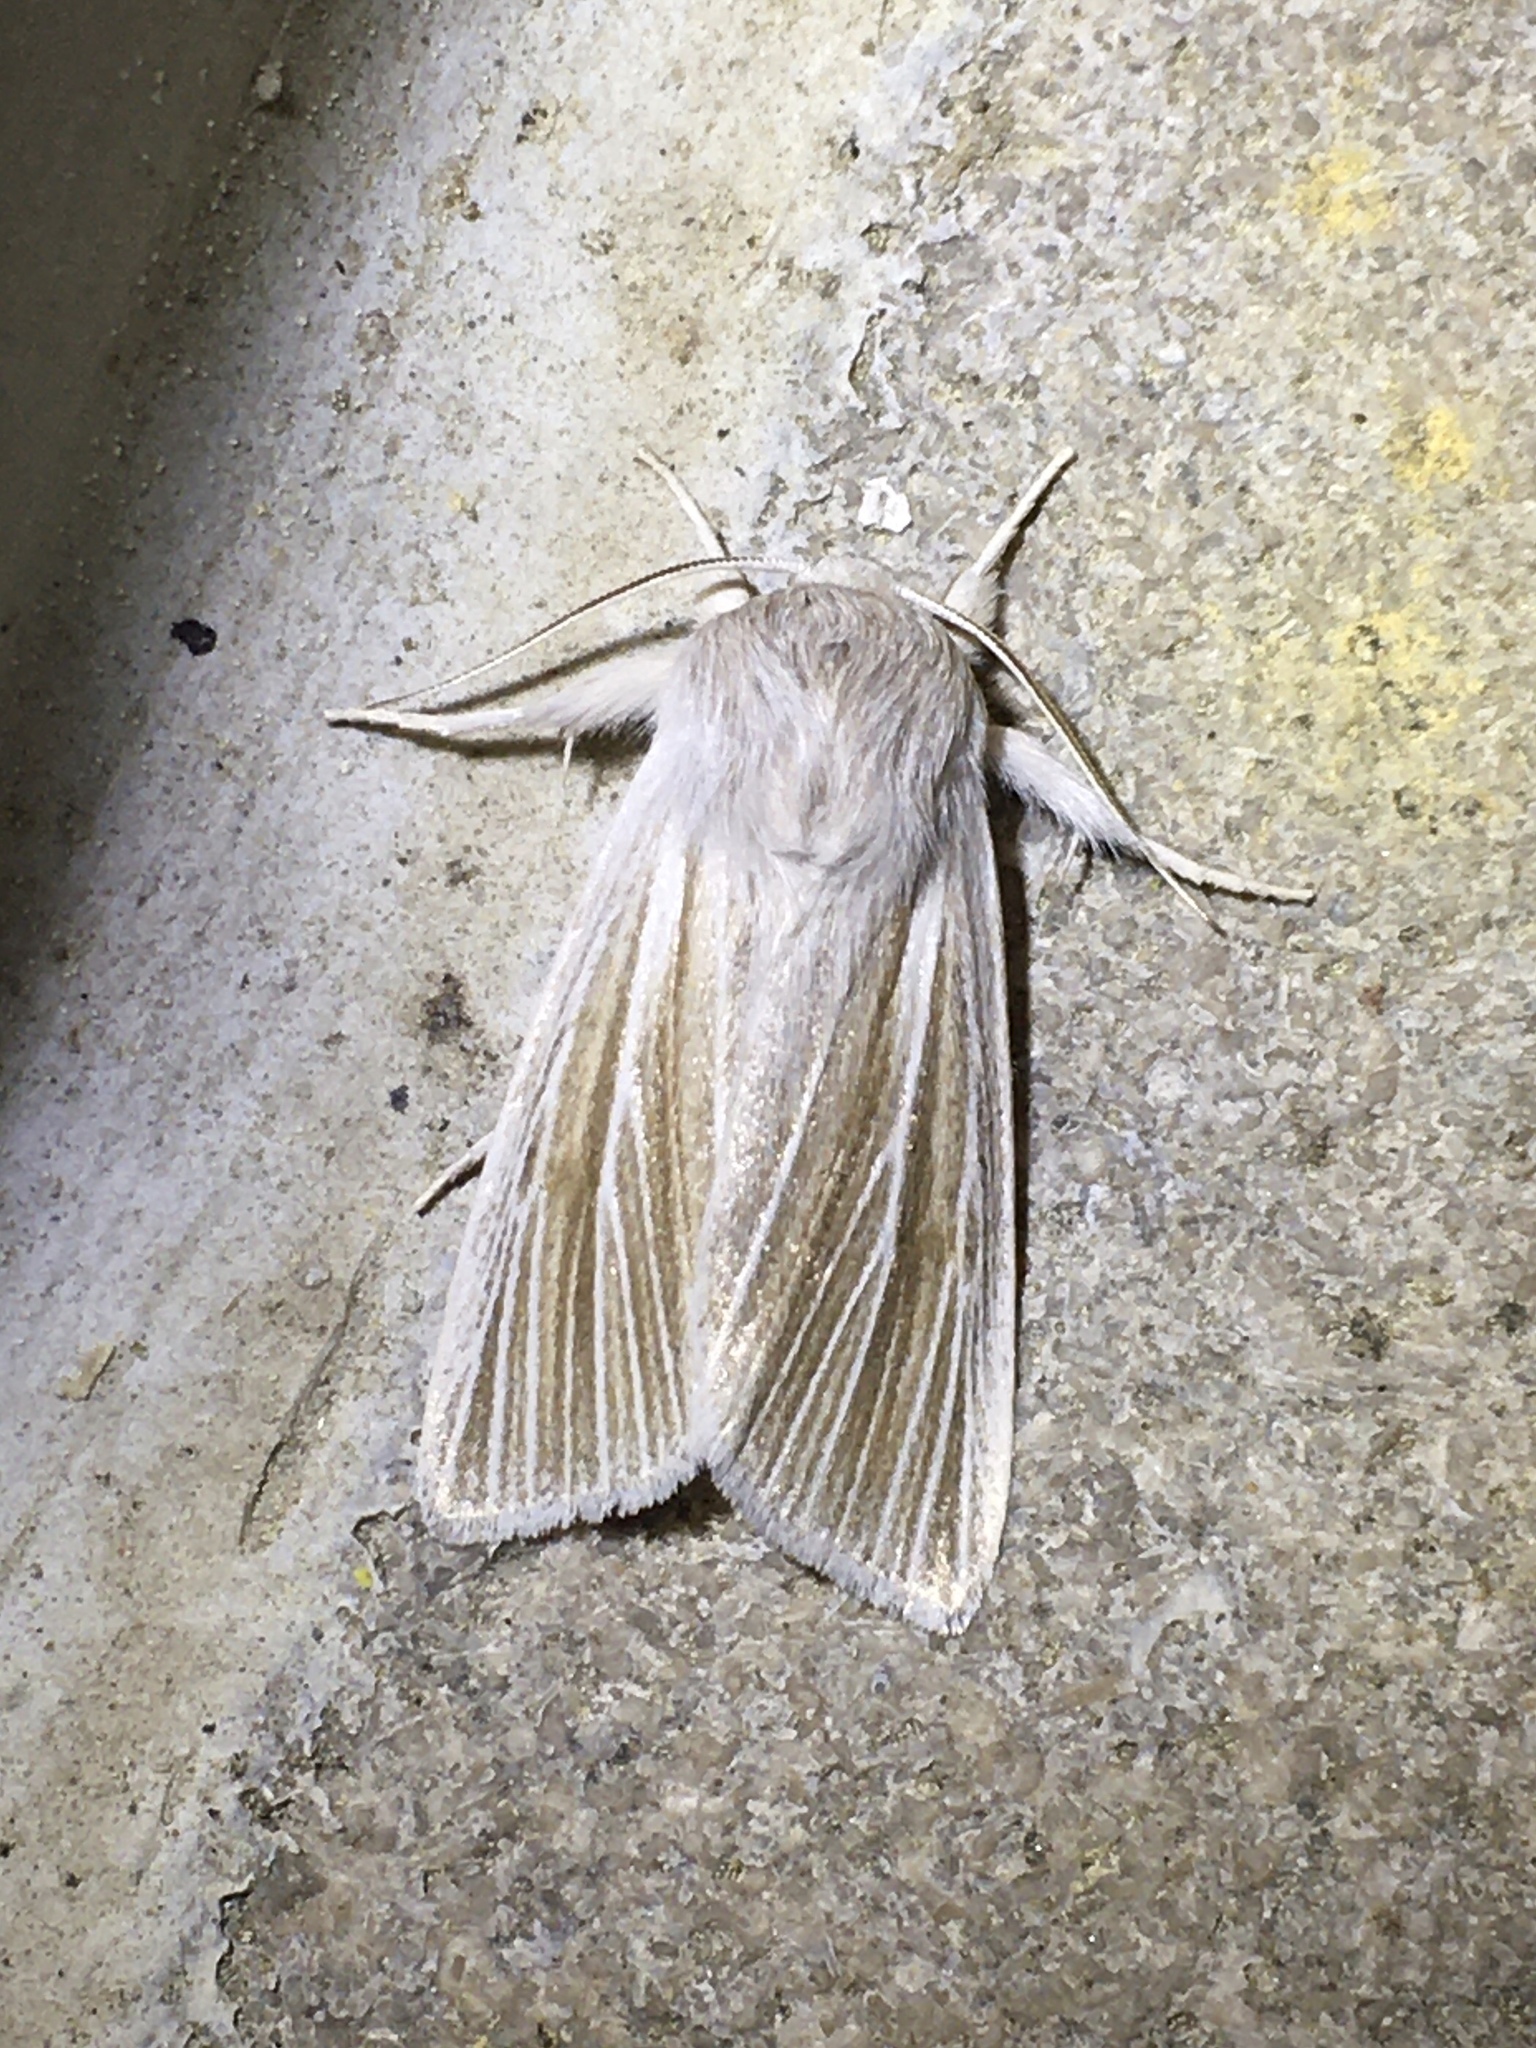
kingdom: Animalia
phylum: Arthropoda
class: Insecta
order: Lepidoptera
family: Noctuidae
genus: Acronicta
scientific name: Acronicta insularis
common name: Henry's marsh moth
